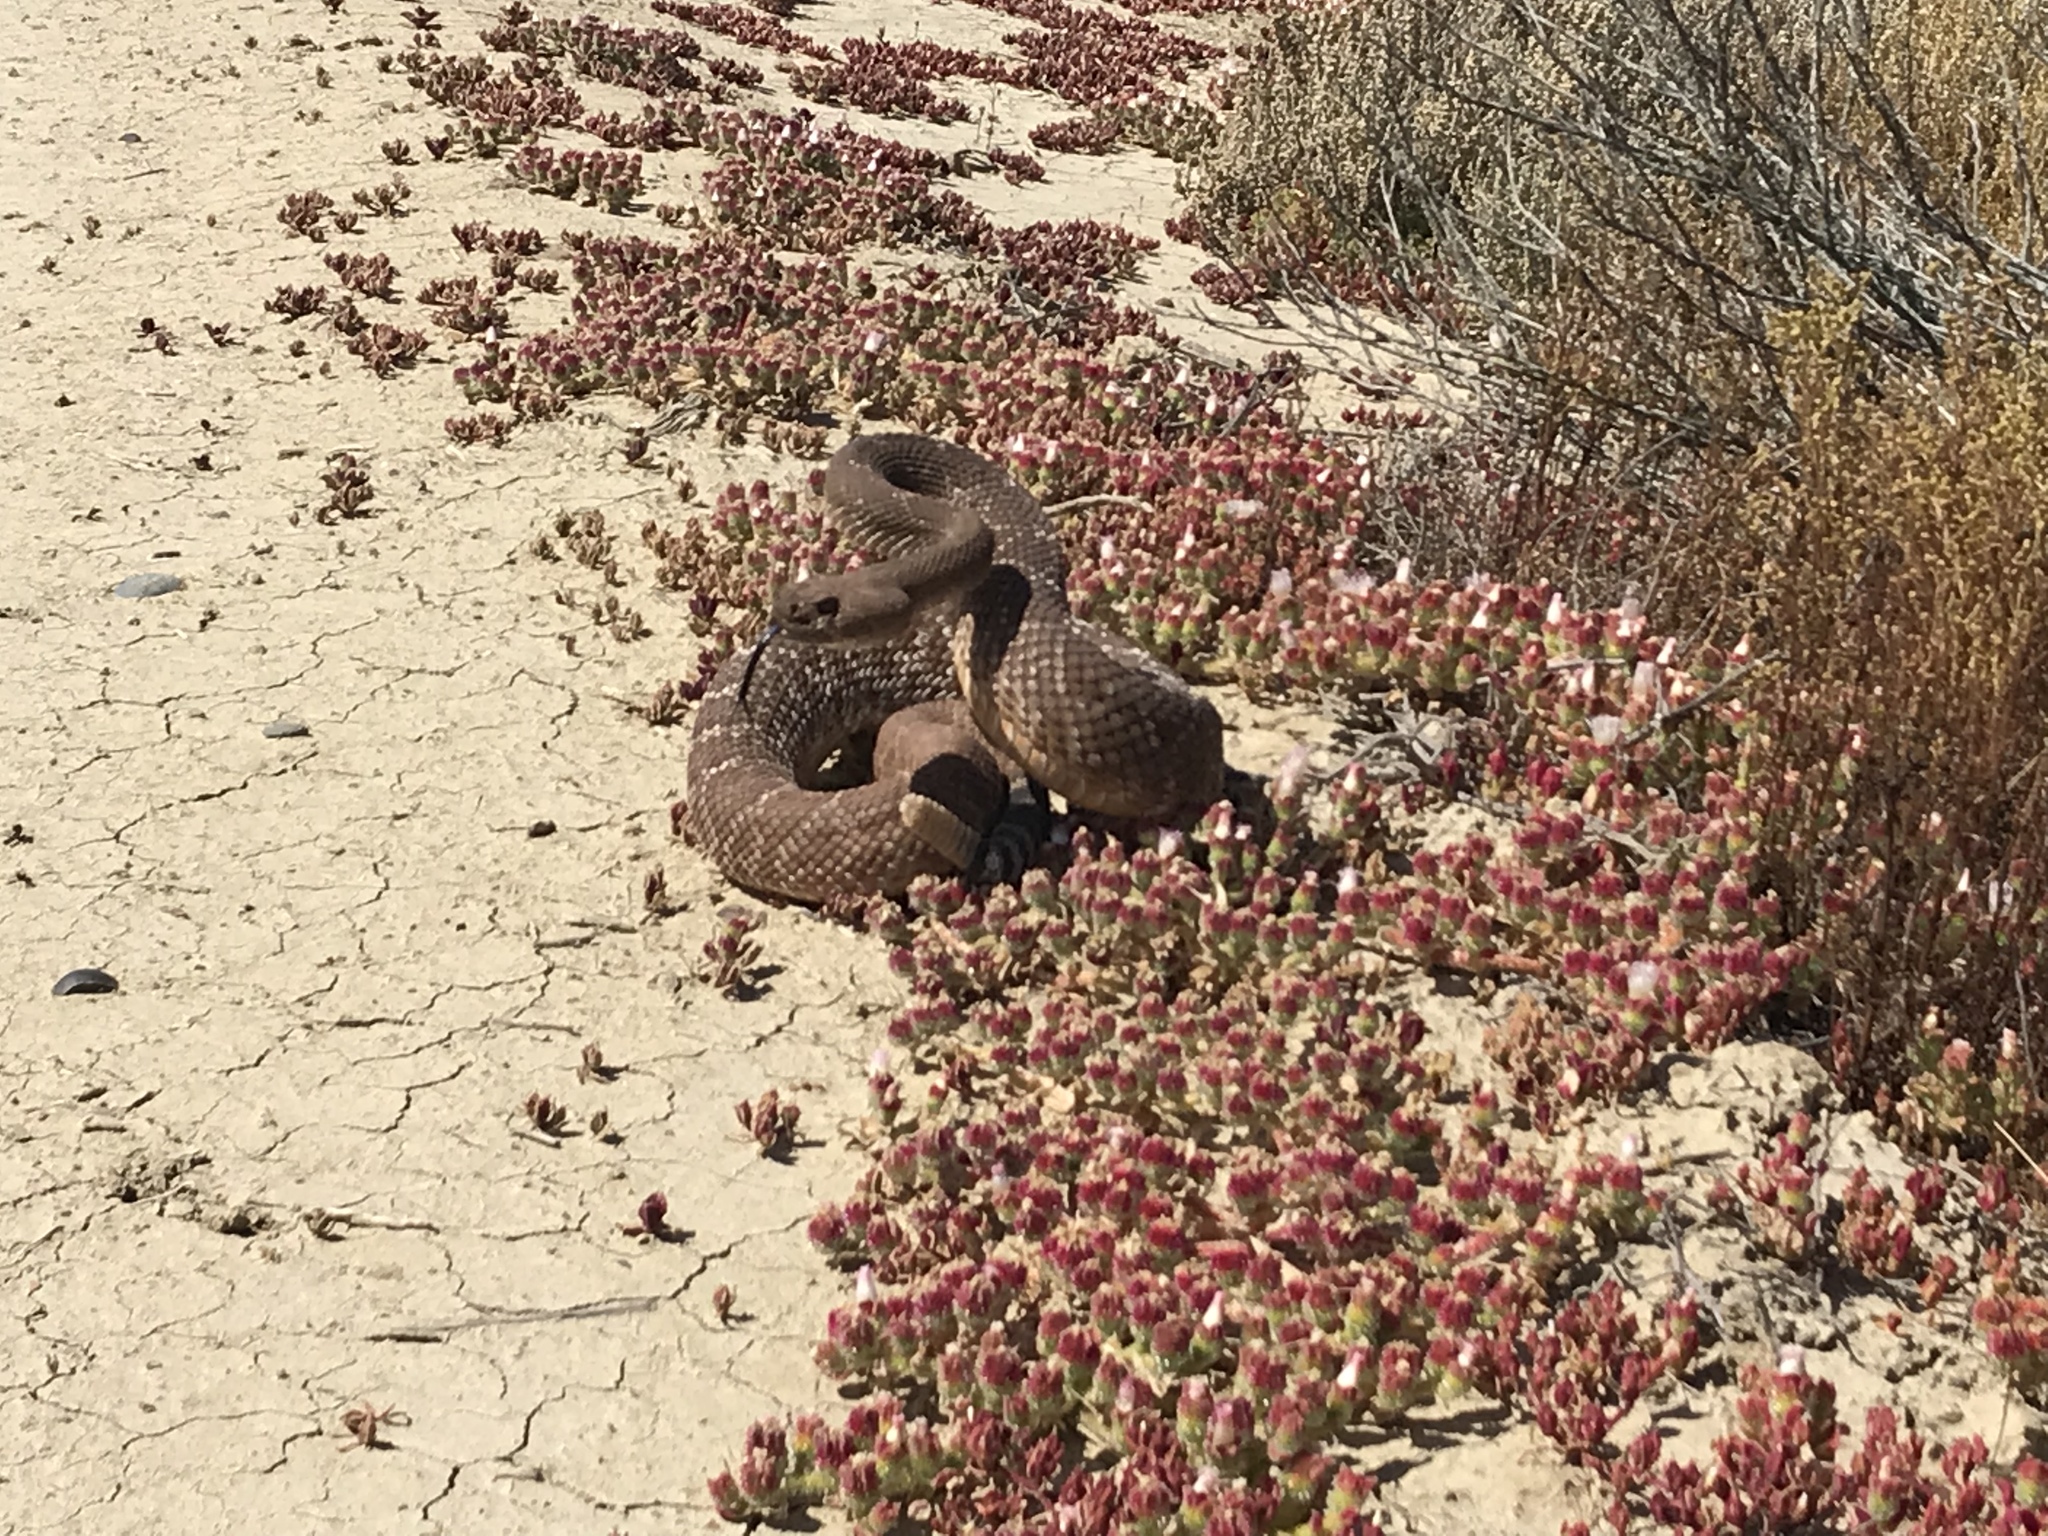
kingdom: Animalia
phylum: Chordata
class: Squamata
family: Viperidae
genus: Crotalus
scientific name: Crotalus ruber
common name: Red diamond rattlesnake
